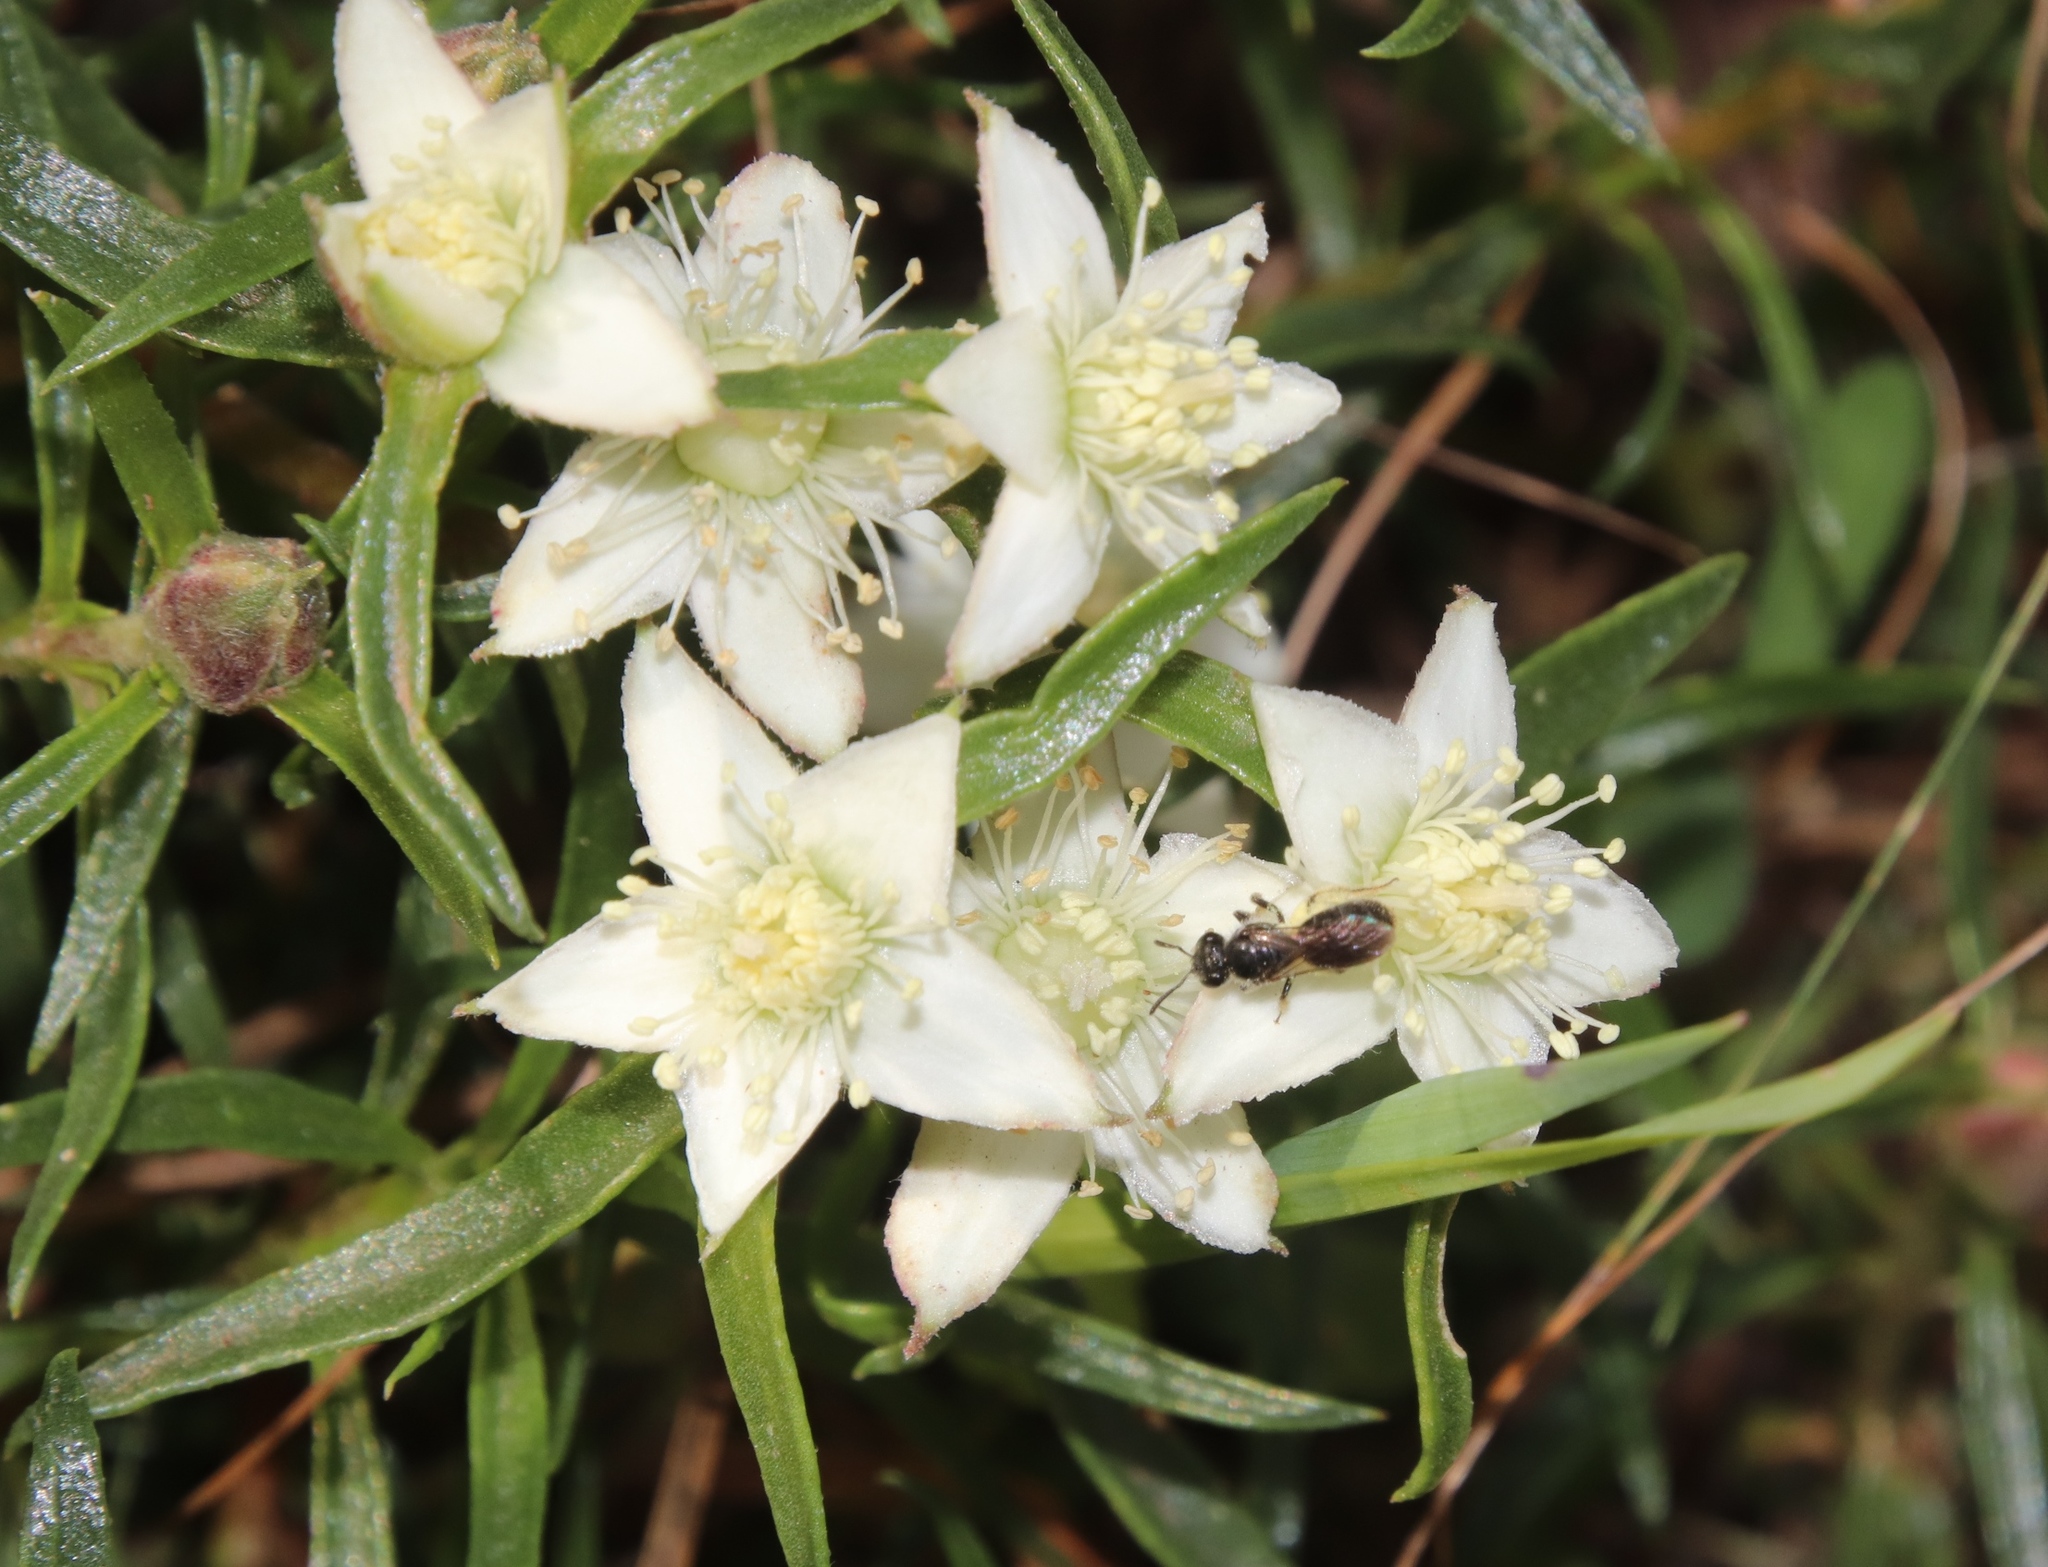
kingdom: Plantae
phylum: Tracheophyta
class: Magnoliopsida
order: Caryophyllales
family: Aizoaceae
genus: Aizoon
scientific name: Aizoon sarmentosum
